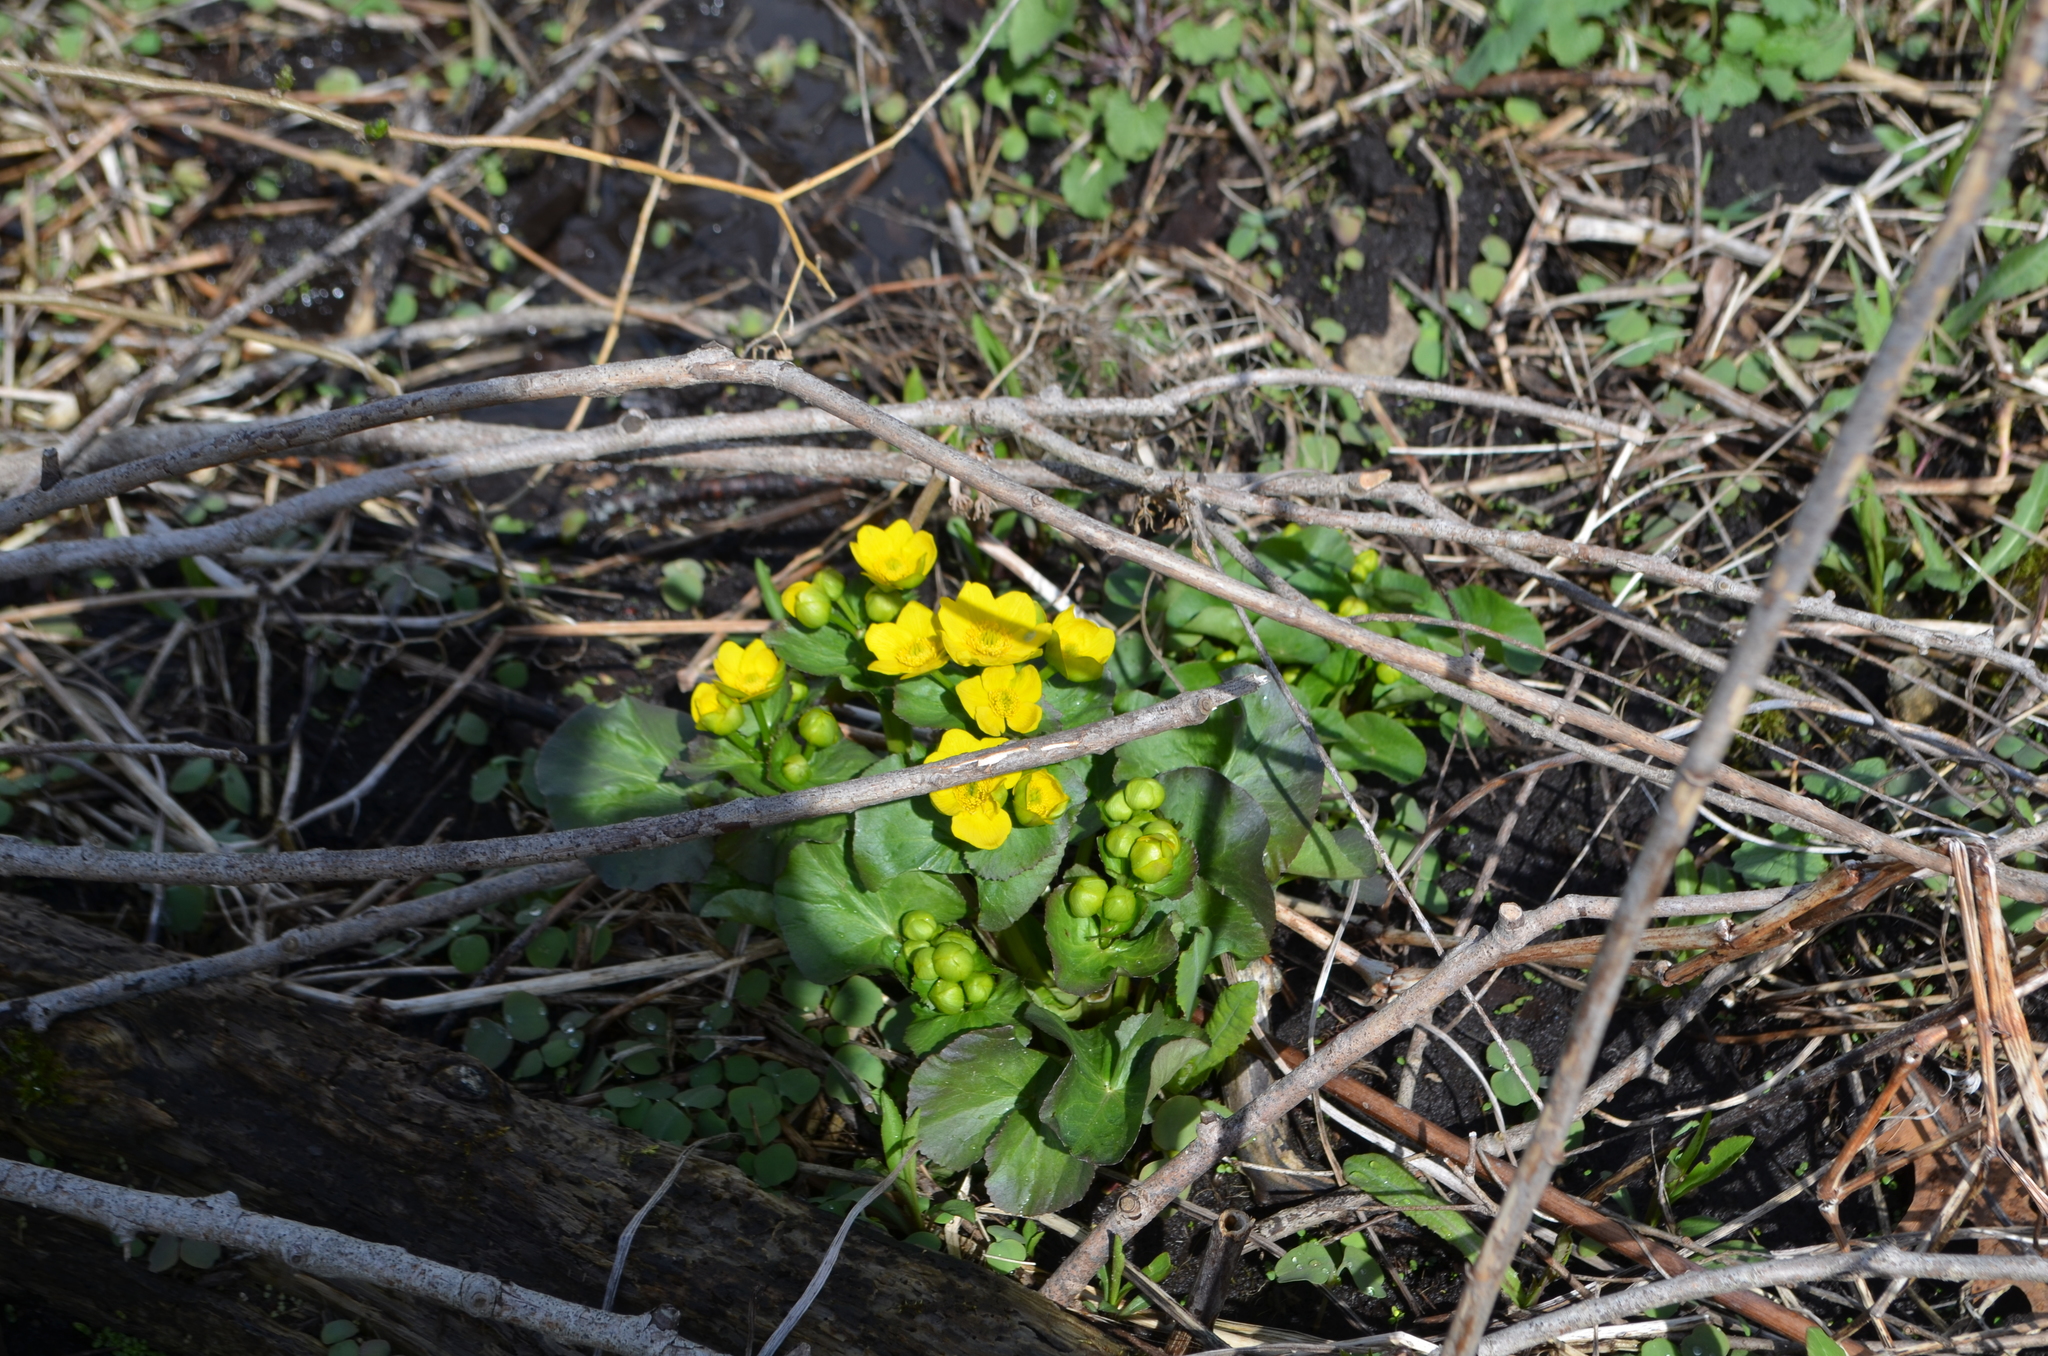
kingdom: Plantae
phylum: Tracheophyta
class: Magnoliopsida
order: Ranunculales
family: Ranunculaceae
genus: Caltha
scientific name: Caltha palustris
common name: Marsh marigold
